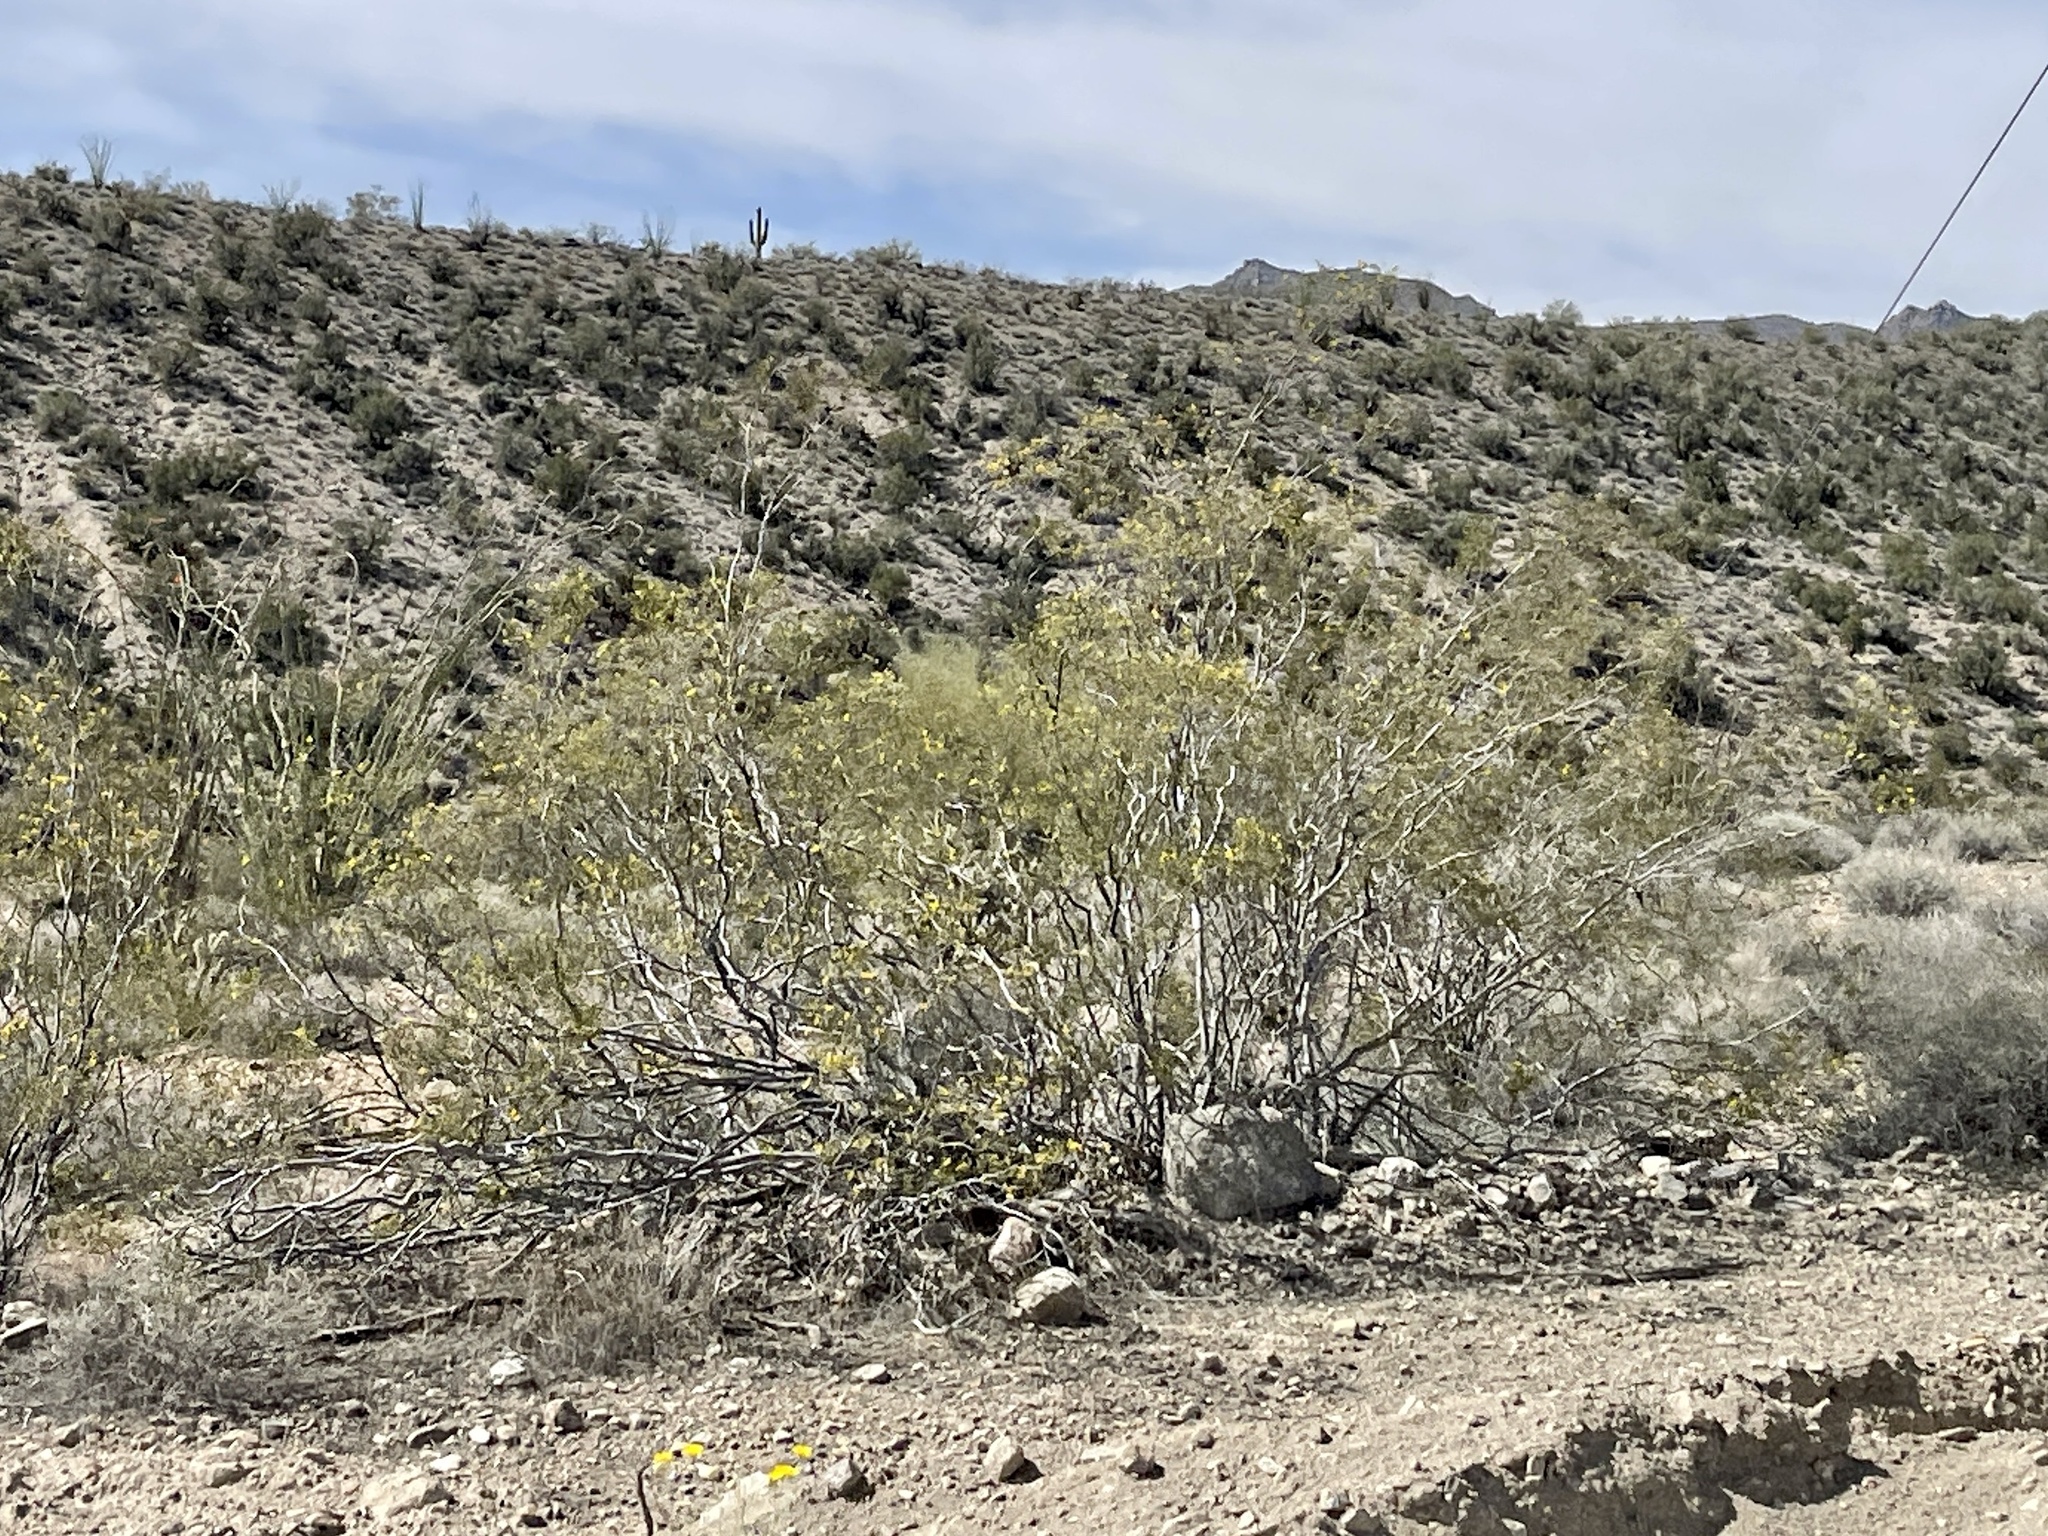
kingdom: Plantae
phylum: Tracheophyta
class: Magnoliopsida
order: Zygophyllales
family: Zygophyllaceae
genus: Larrea
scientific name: Larrea tridentata
